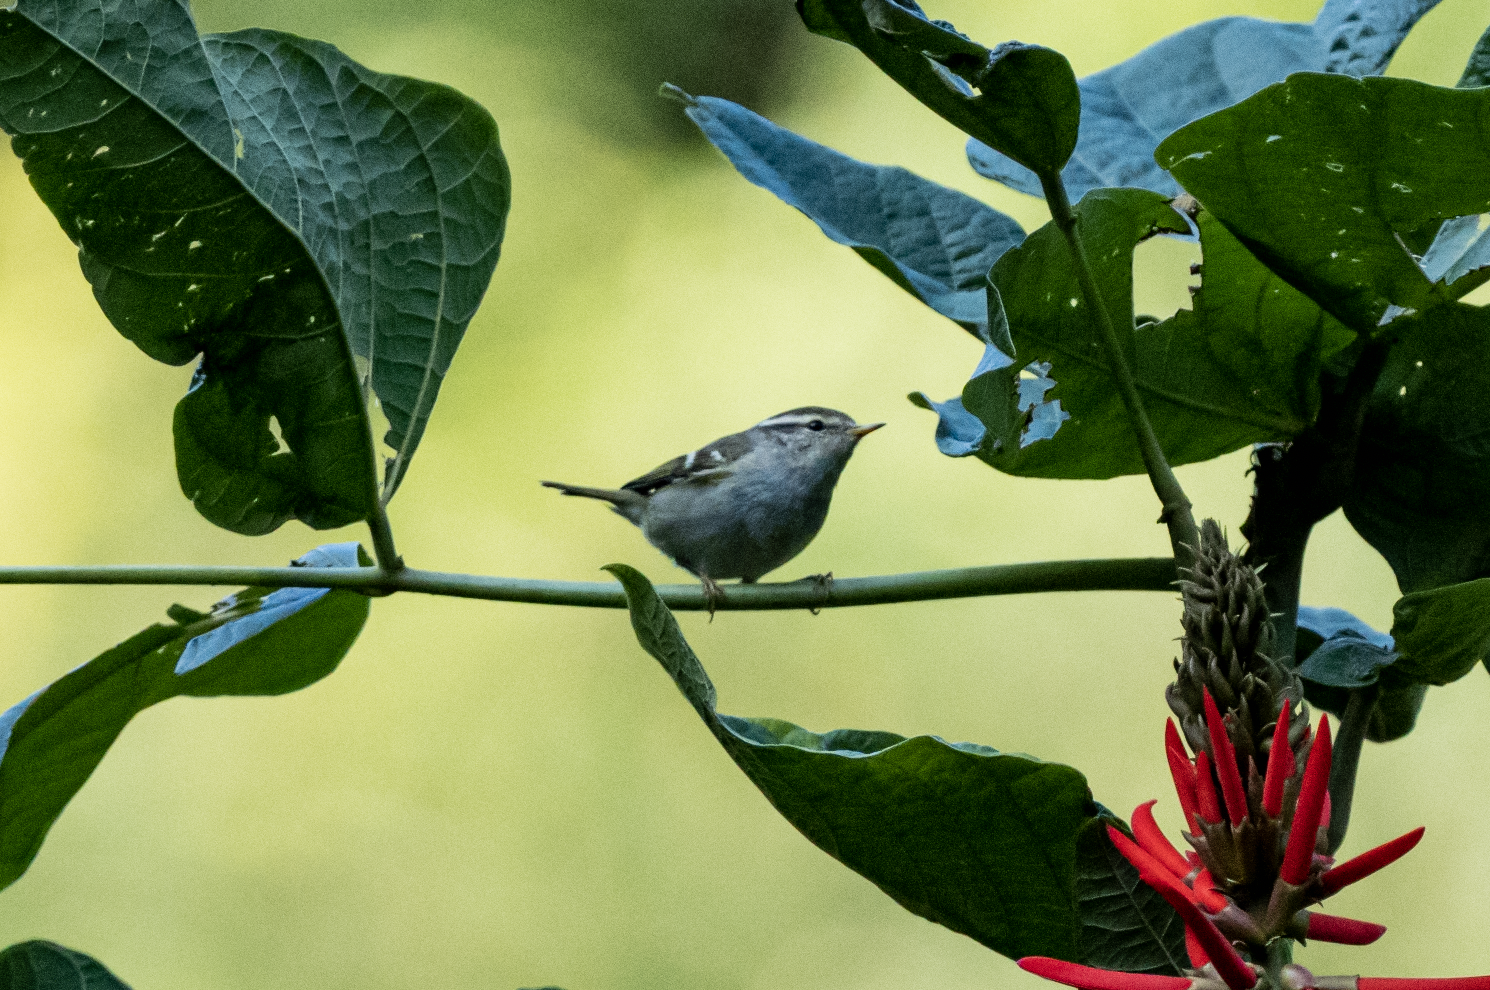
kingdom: Animalia
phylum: Chordata
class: Aves
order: Passeriformes
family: Phylloscopidae
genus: Phylloscopus
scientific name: Phylloscopus inornatus
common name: Yellow-browed warbler
